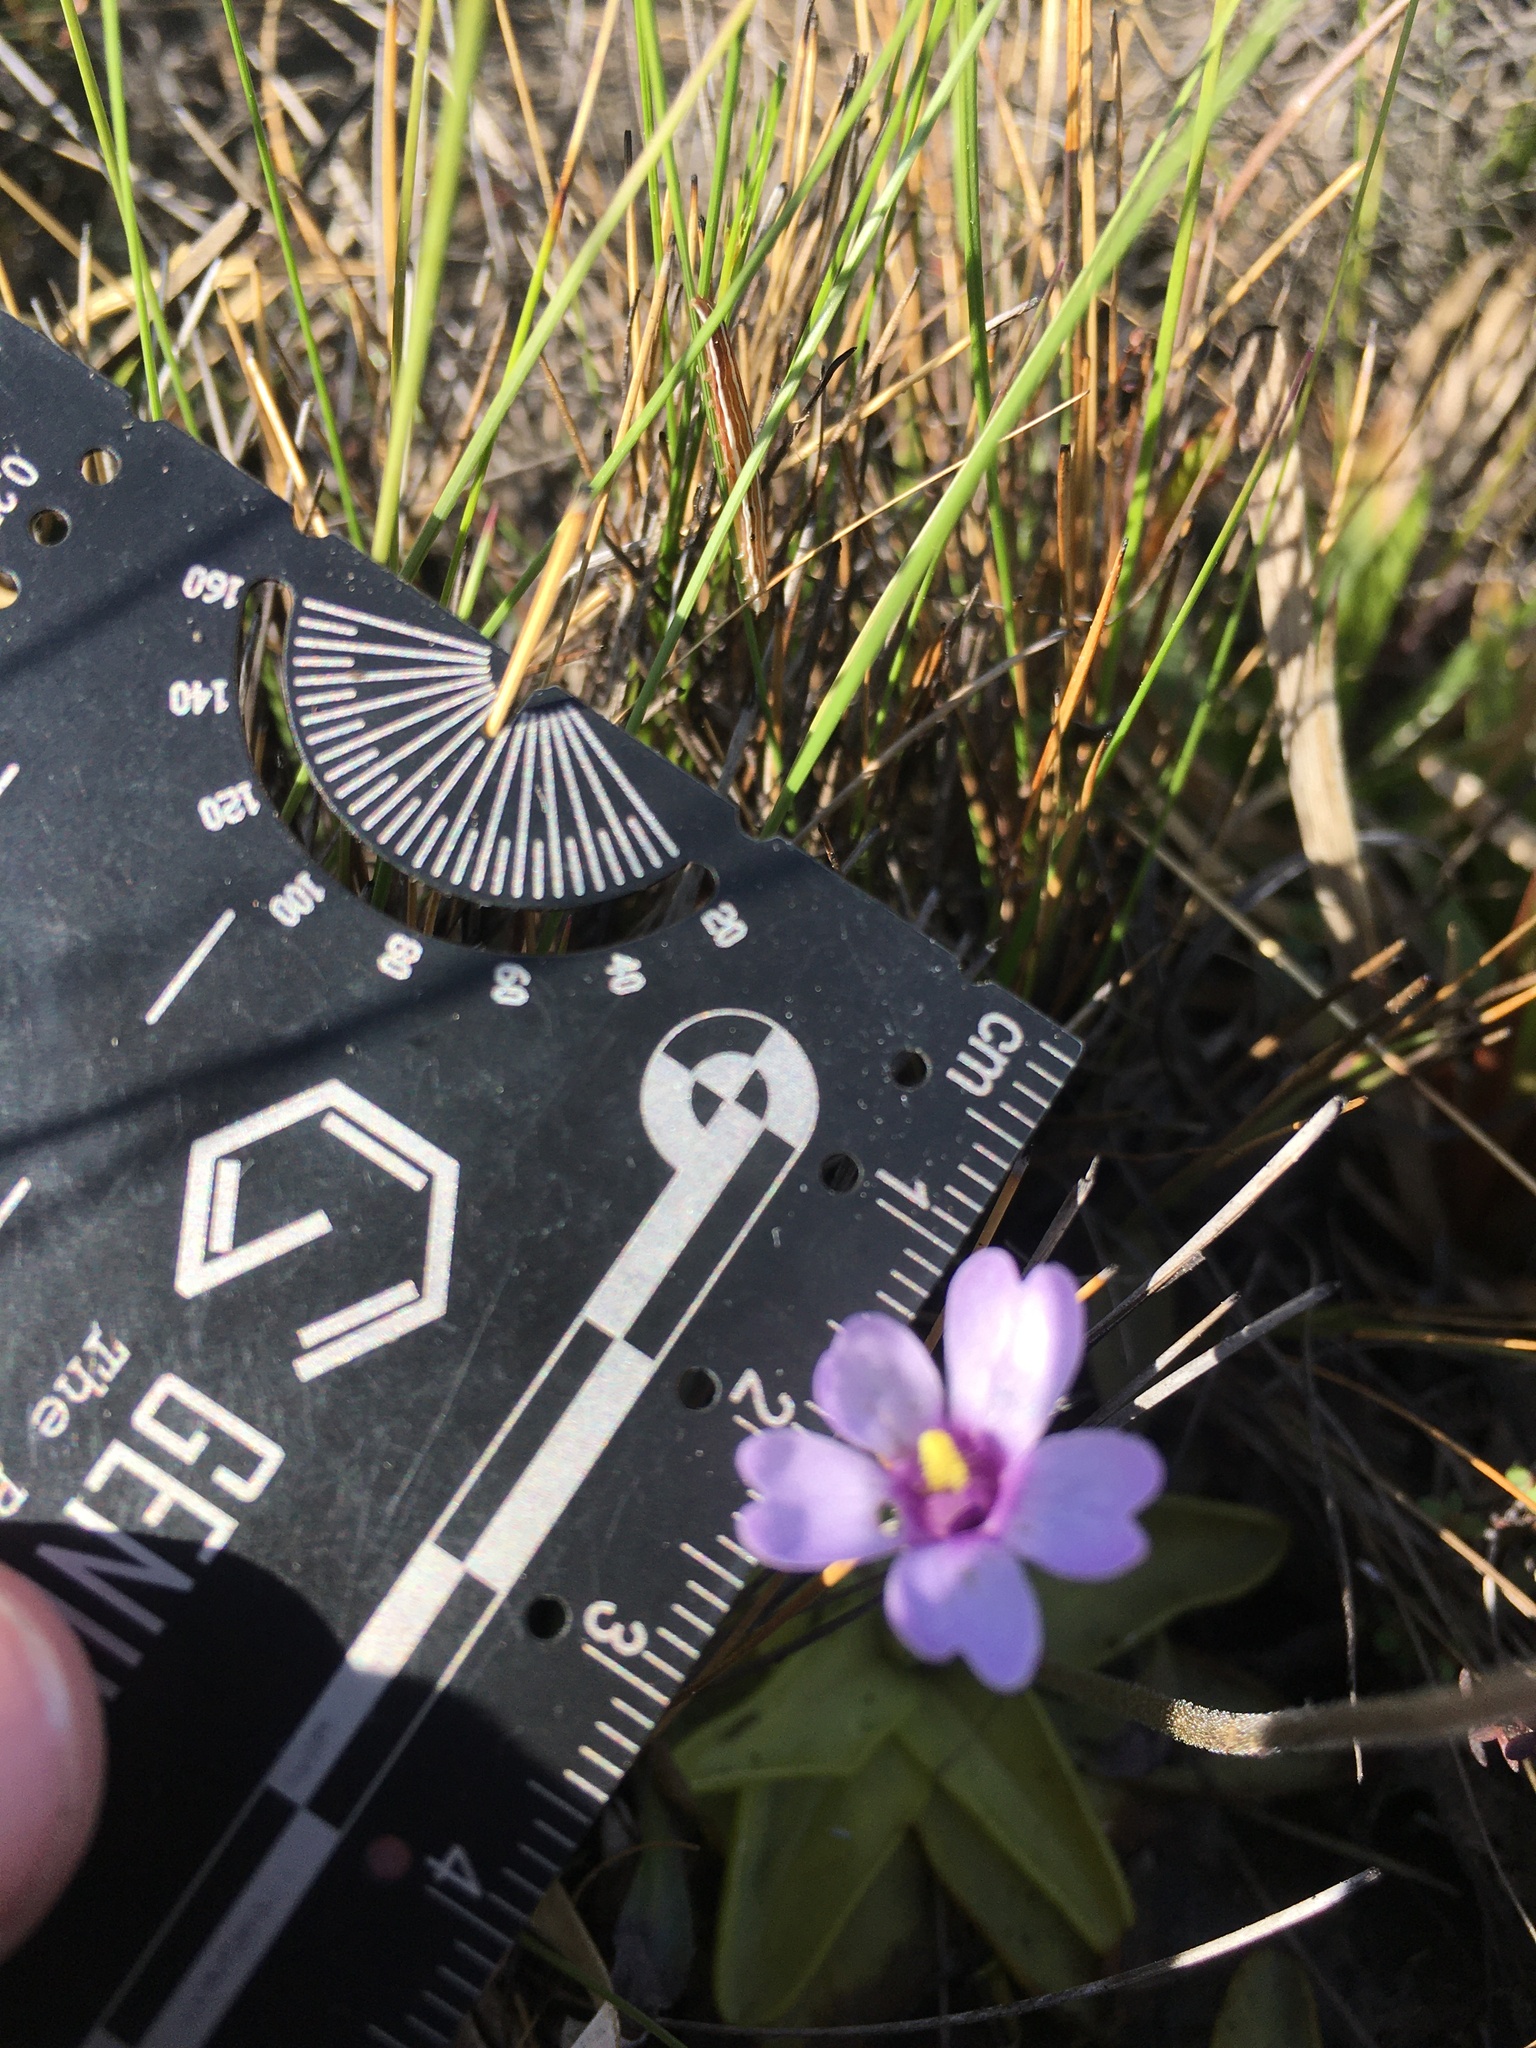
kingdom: Plantae
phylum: Tracheophyta
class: Magnoliopsida
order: Lamiales
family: Lentibulariaceae
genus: Pinguicula
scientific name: Pinguicula ionantha
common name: Godfrey's butterwort
